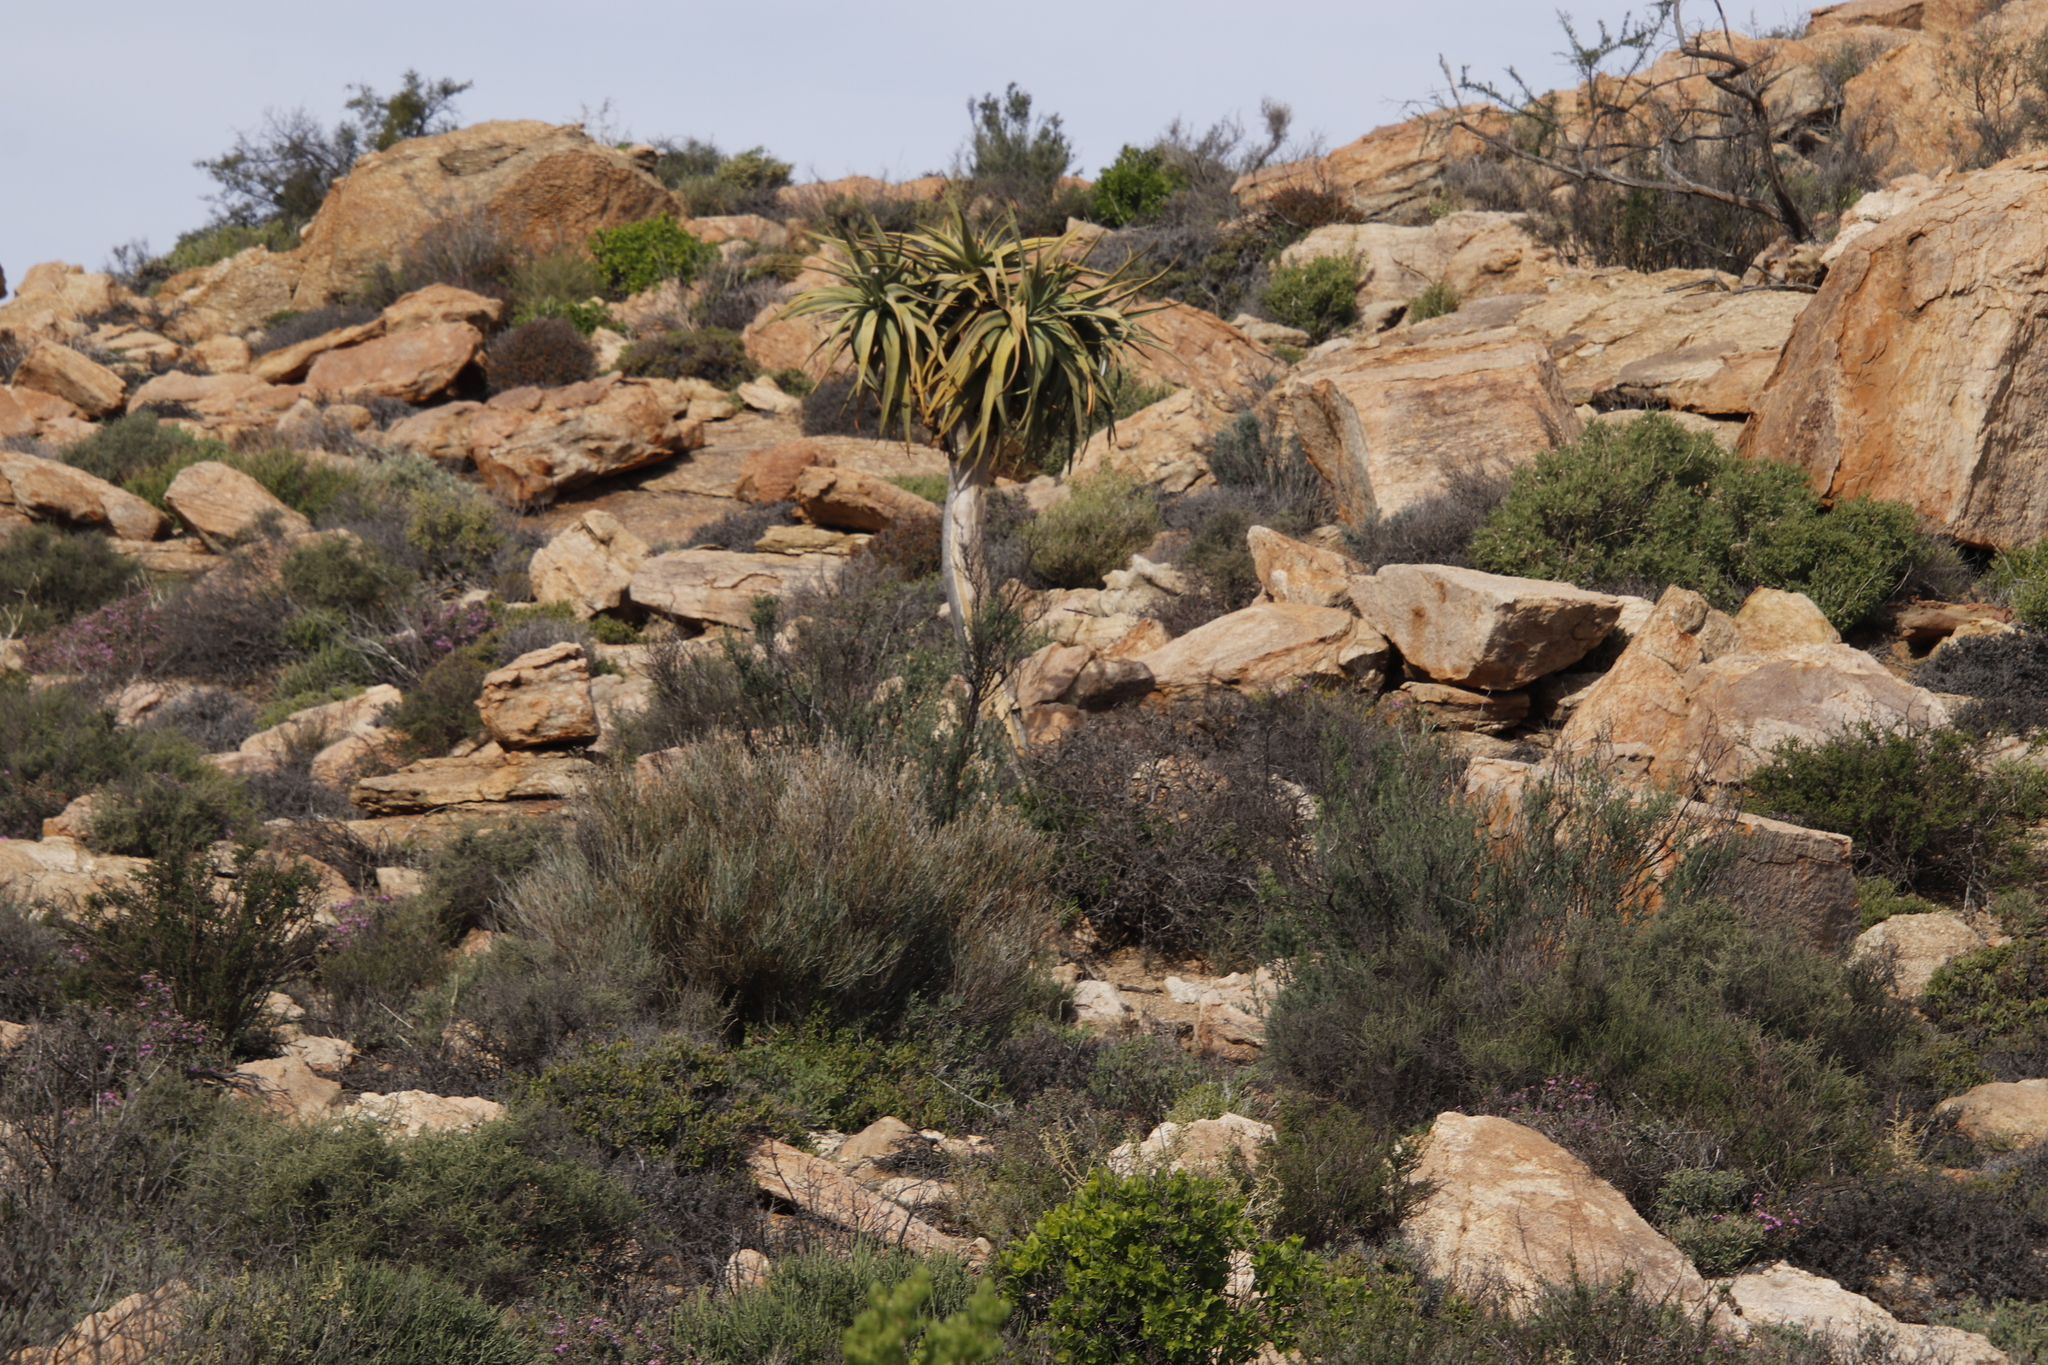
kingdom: Plantae
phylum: Tracheophyta
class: Liliopsida
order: Asparagales
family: Asphodelaceae
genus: Aloidendron
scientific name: Aloidendron dichotomum
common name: Quiver tree
